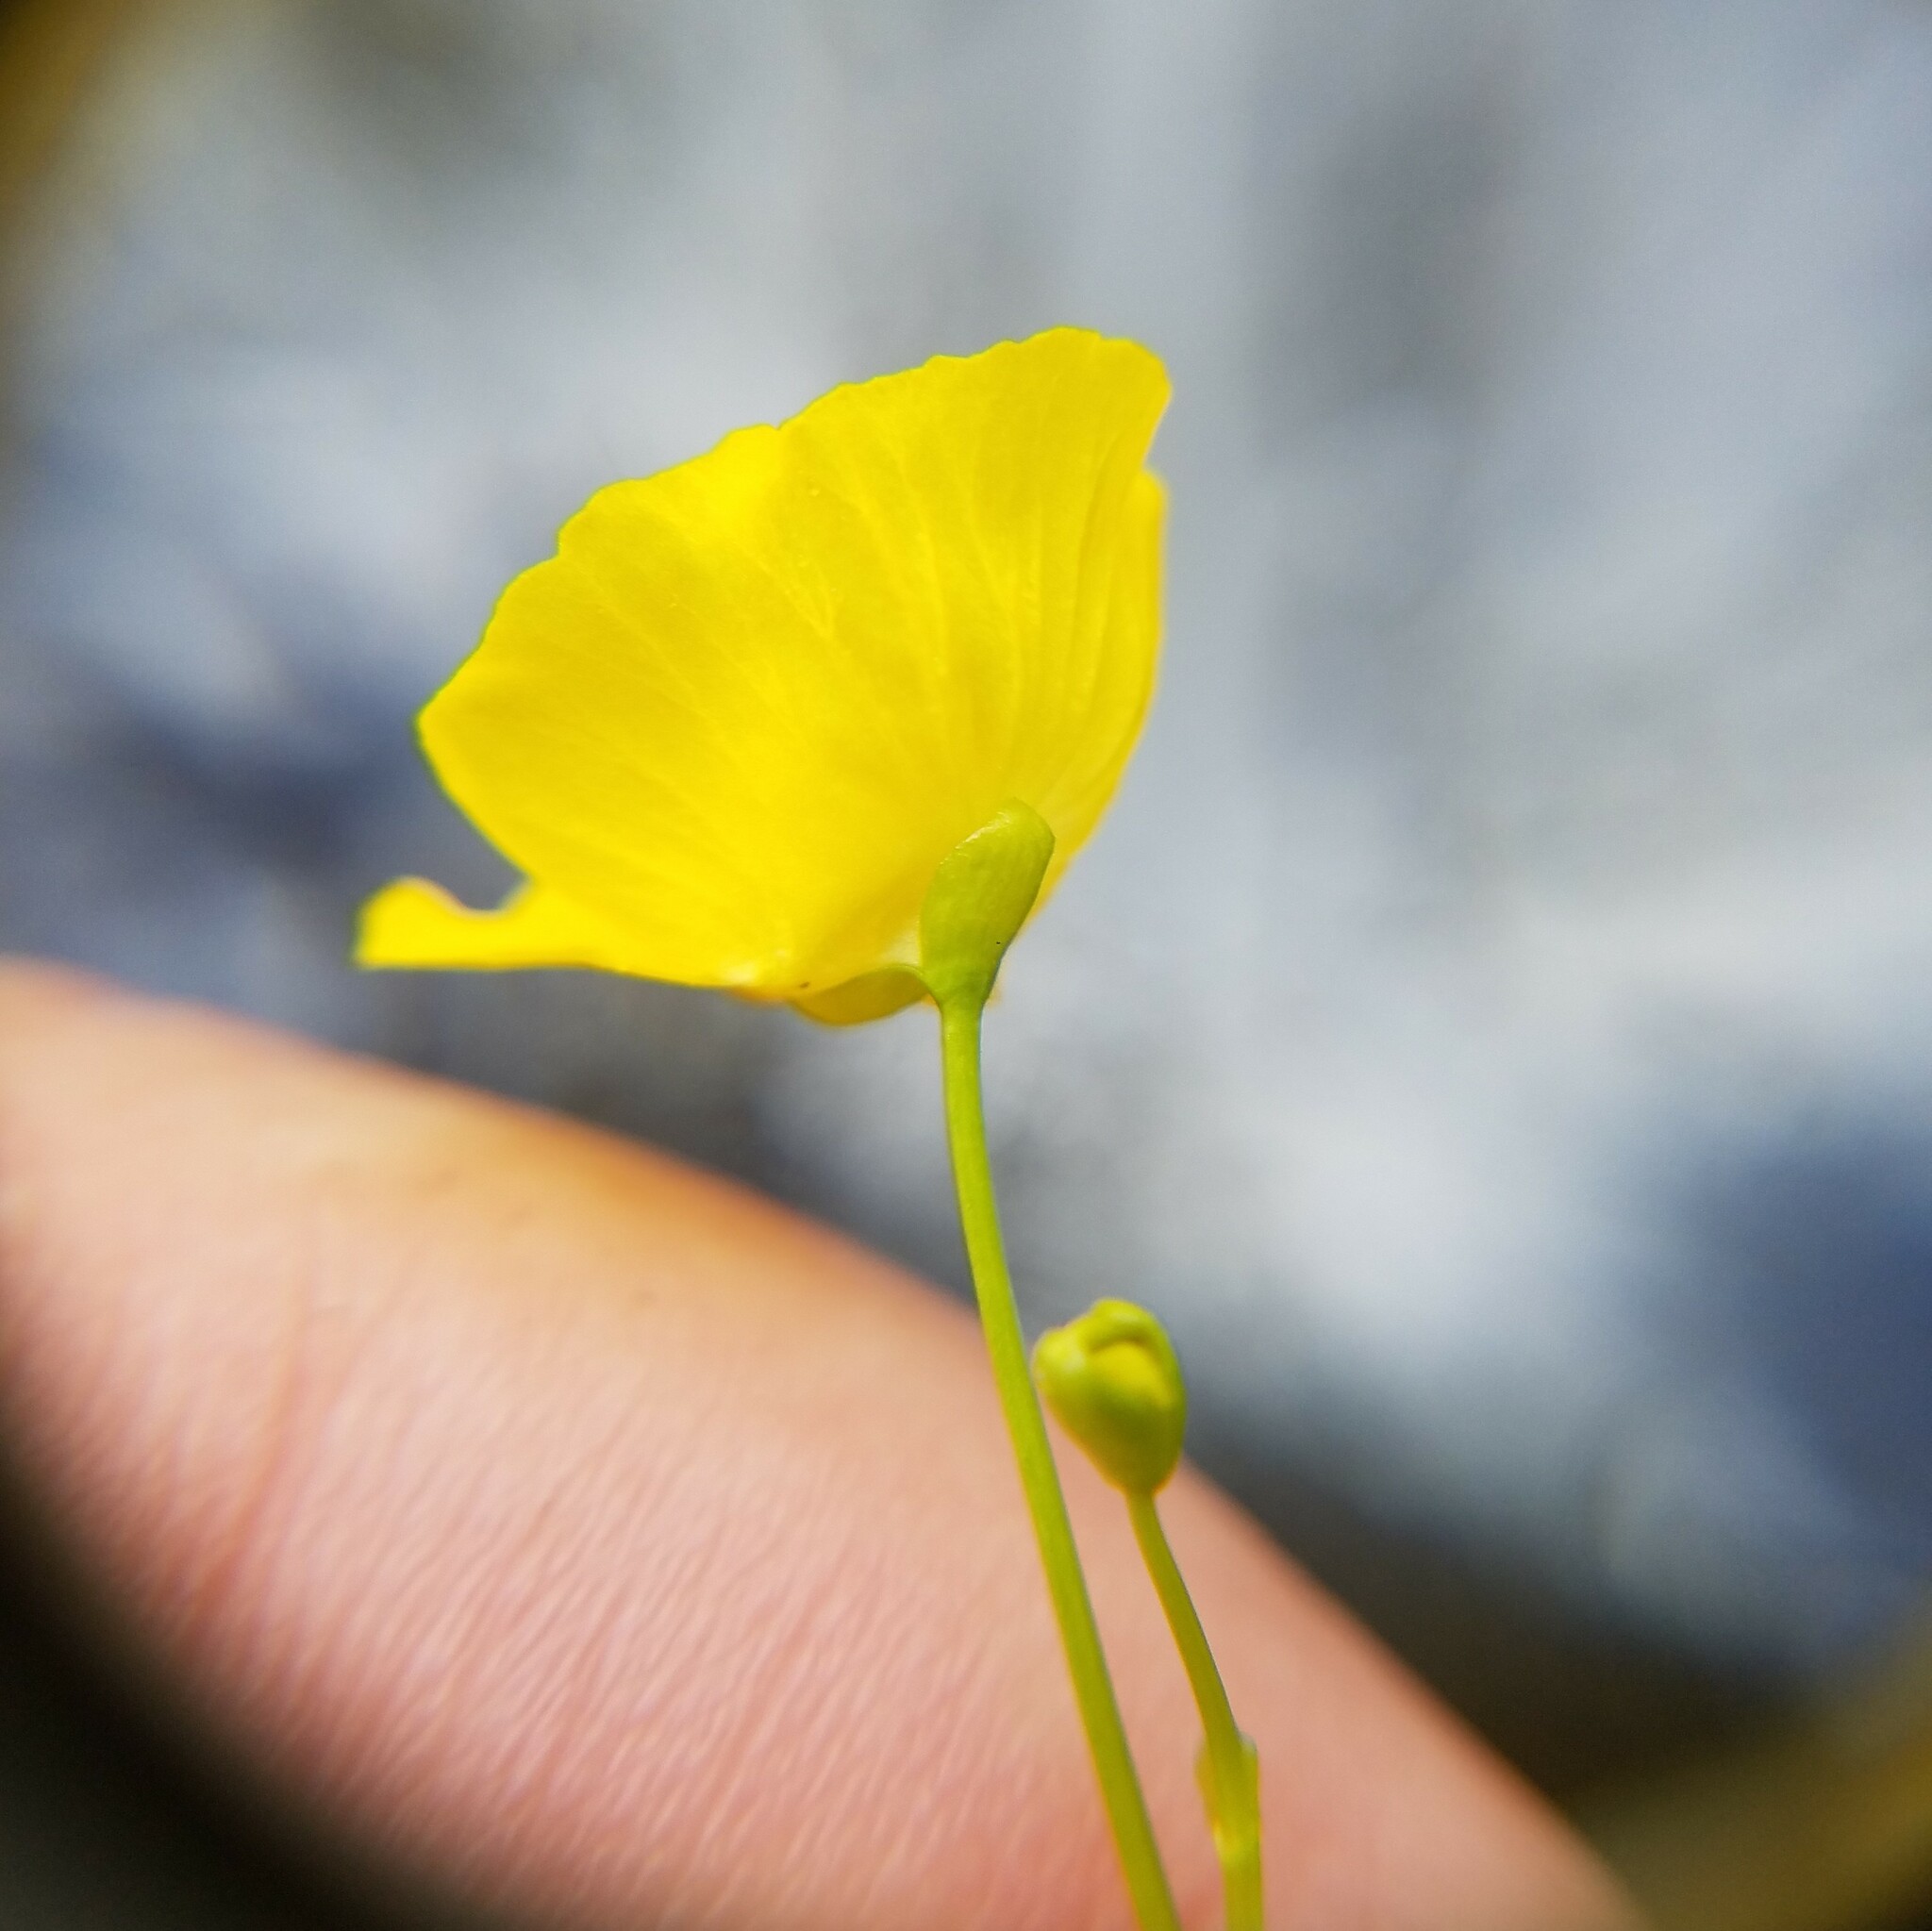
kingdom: Plantae
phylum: Tracheophyta
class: Magnoliopsida
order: Lamiales
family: Lentibulariaceae
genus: Utricularia
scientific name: Utricularia gibba
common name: Humped bladderwort
